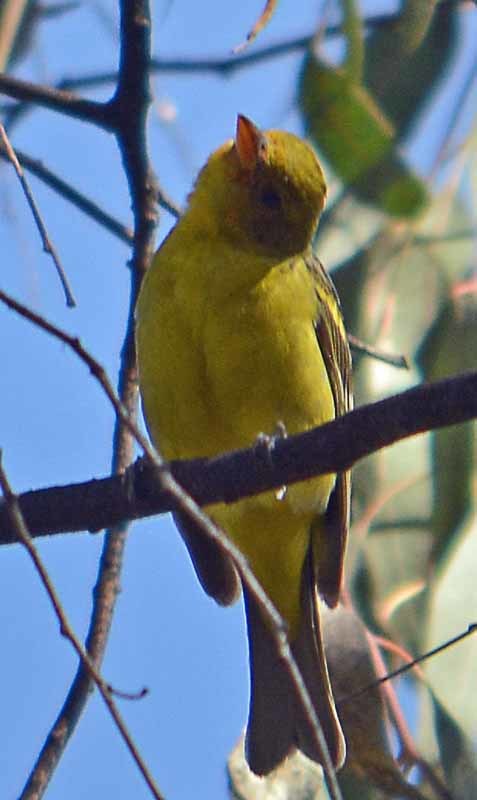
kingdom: Animalia
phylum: Chordata
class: Aves
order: Passeriformes
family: Cardinalidae
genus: Piranga
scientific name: Piranga ludoviciana
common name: Western tanager
